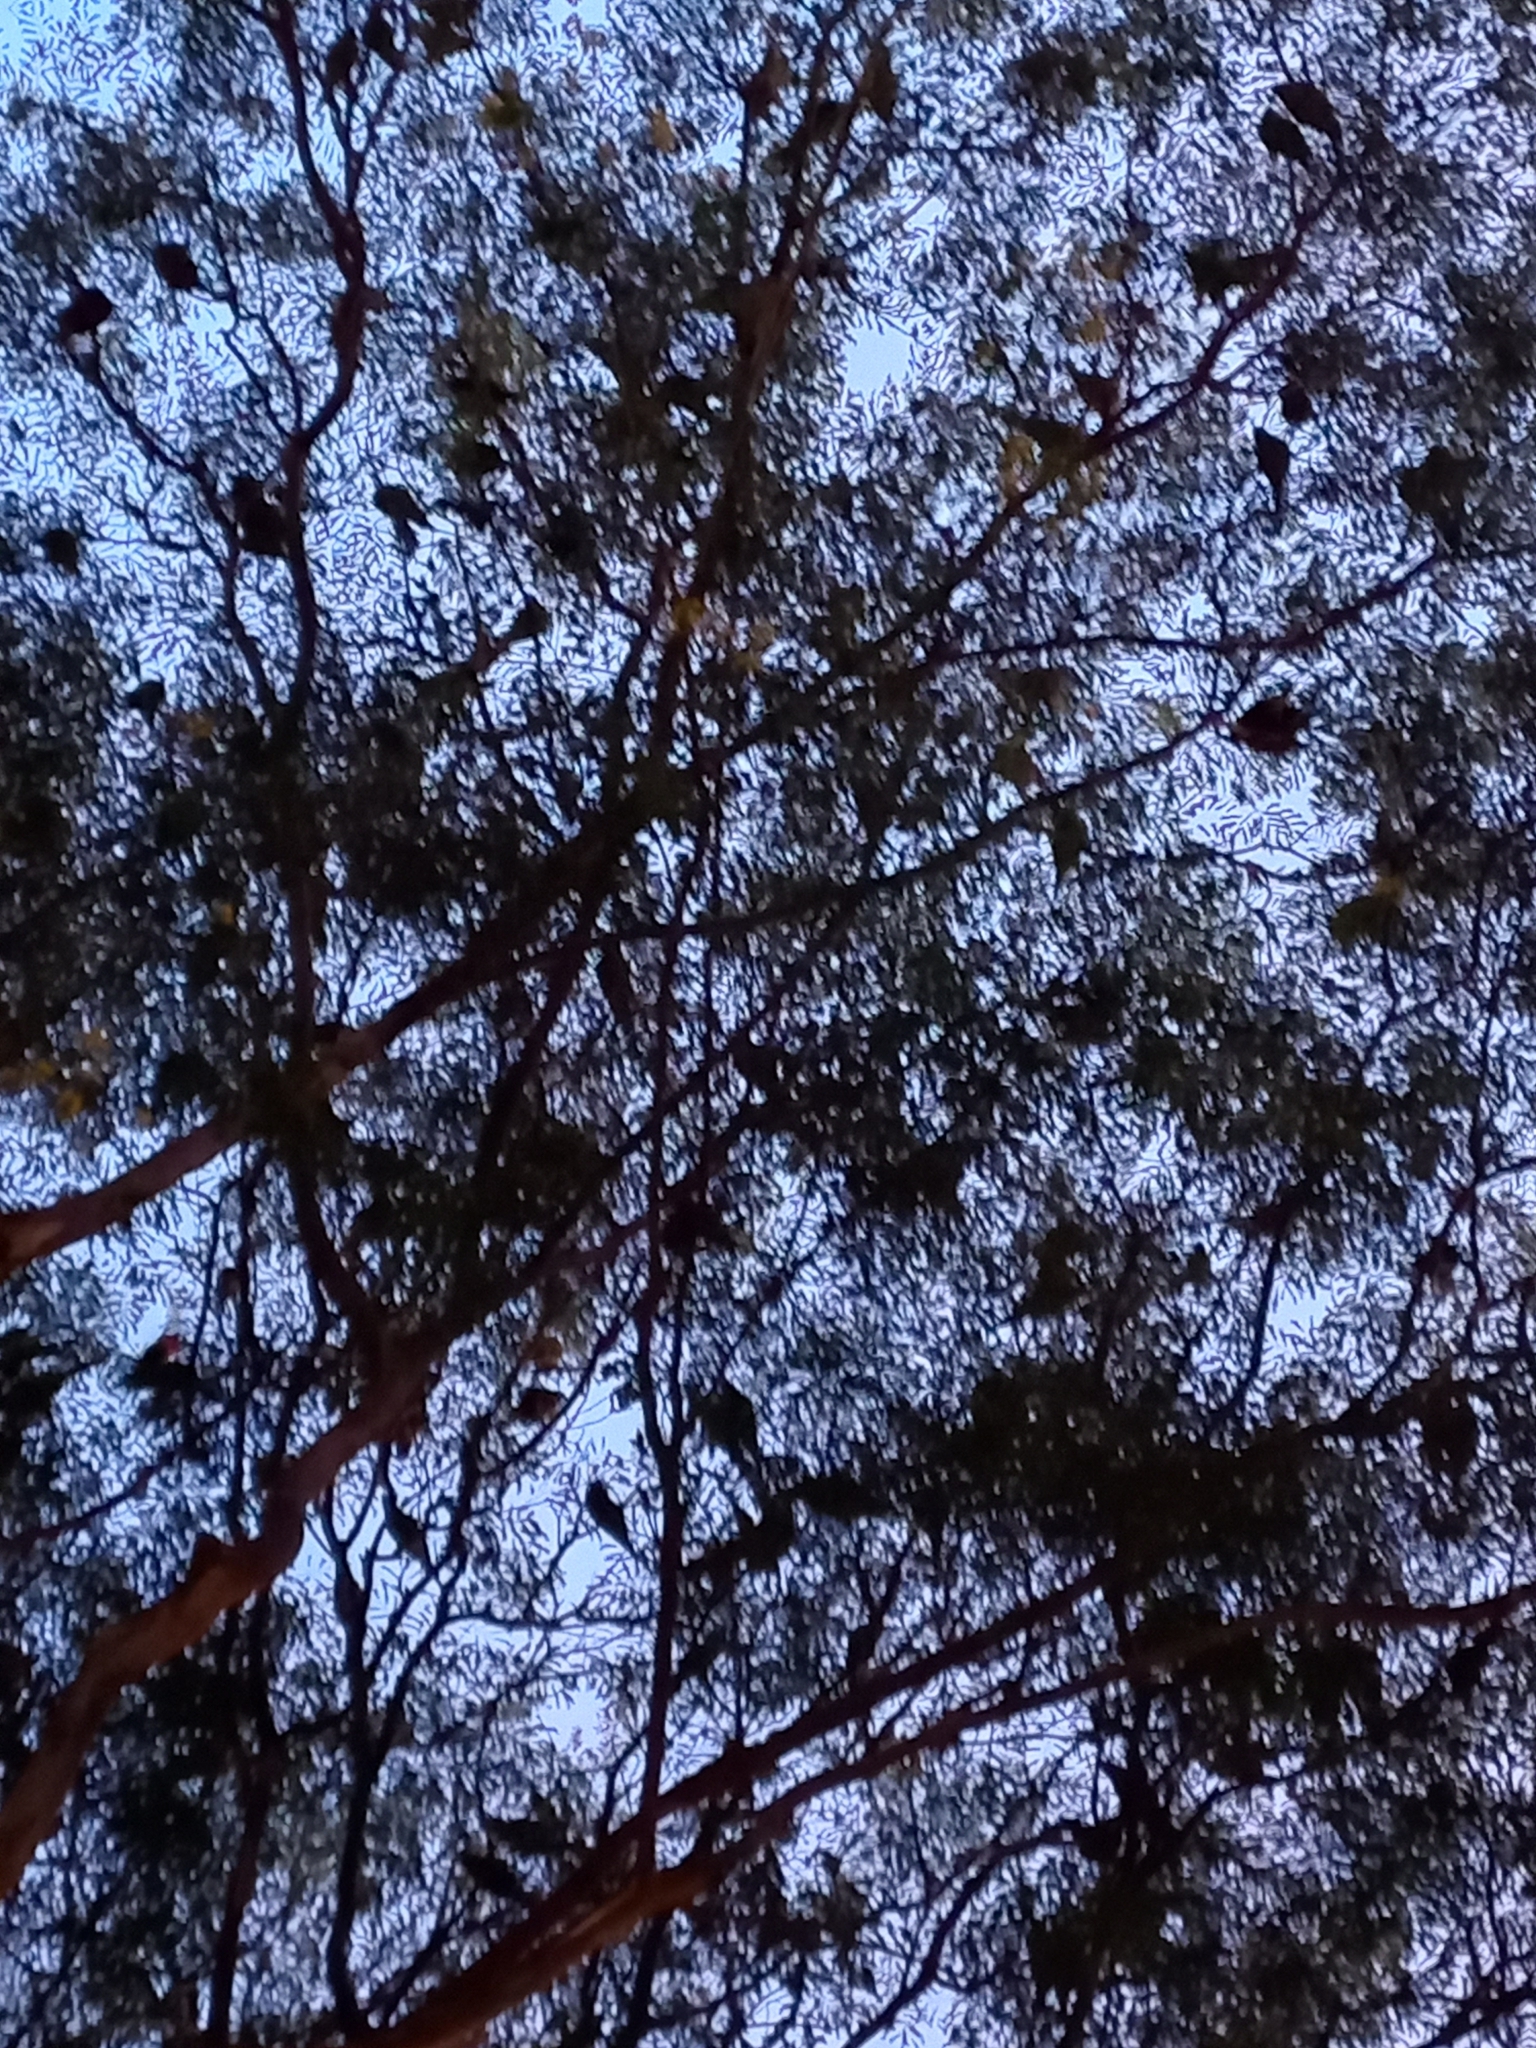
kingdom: Animalia
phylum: Chordata
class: Aves
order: Passeriformes
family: Sturnidae
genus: Acridotheres
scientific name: Acridotheres tristis
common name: Common myna
